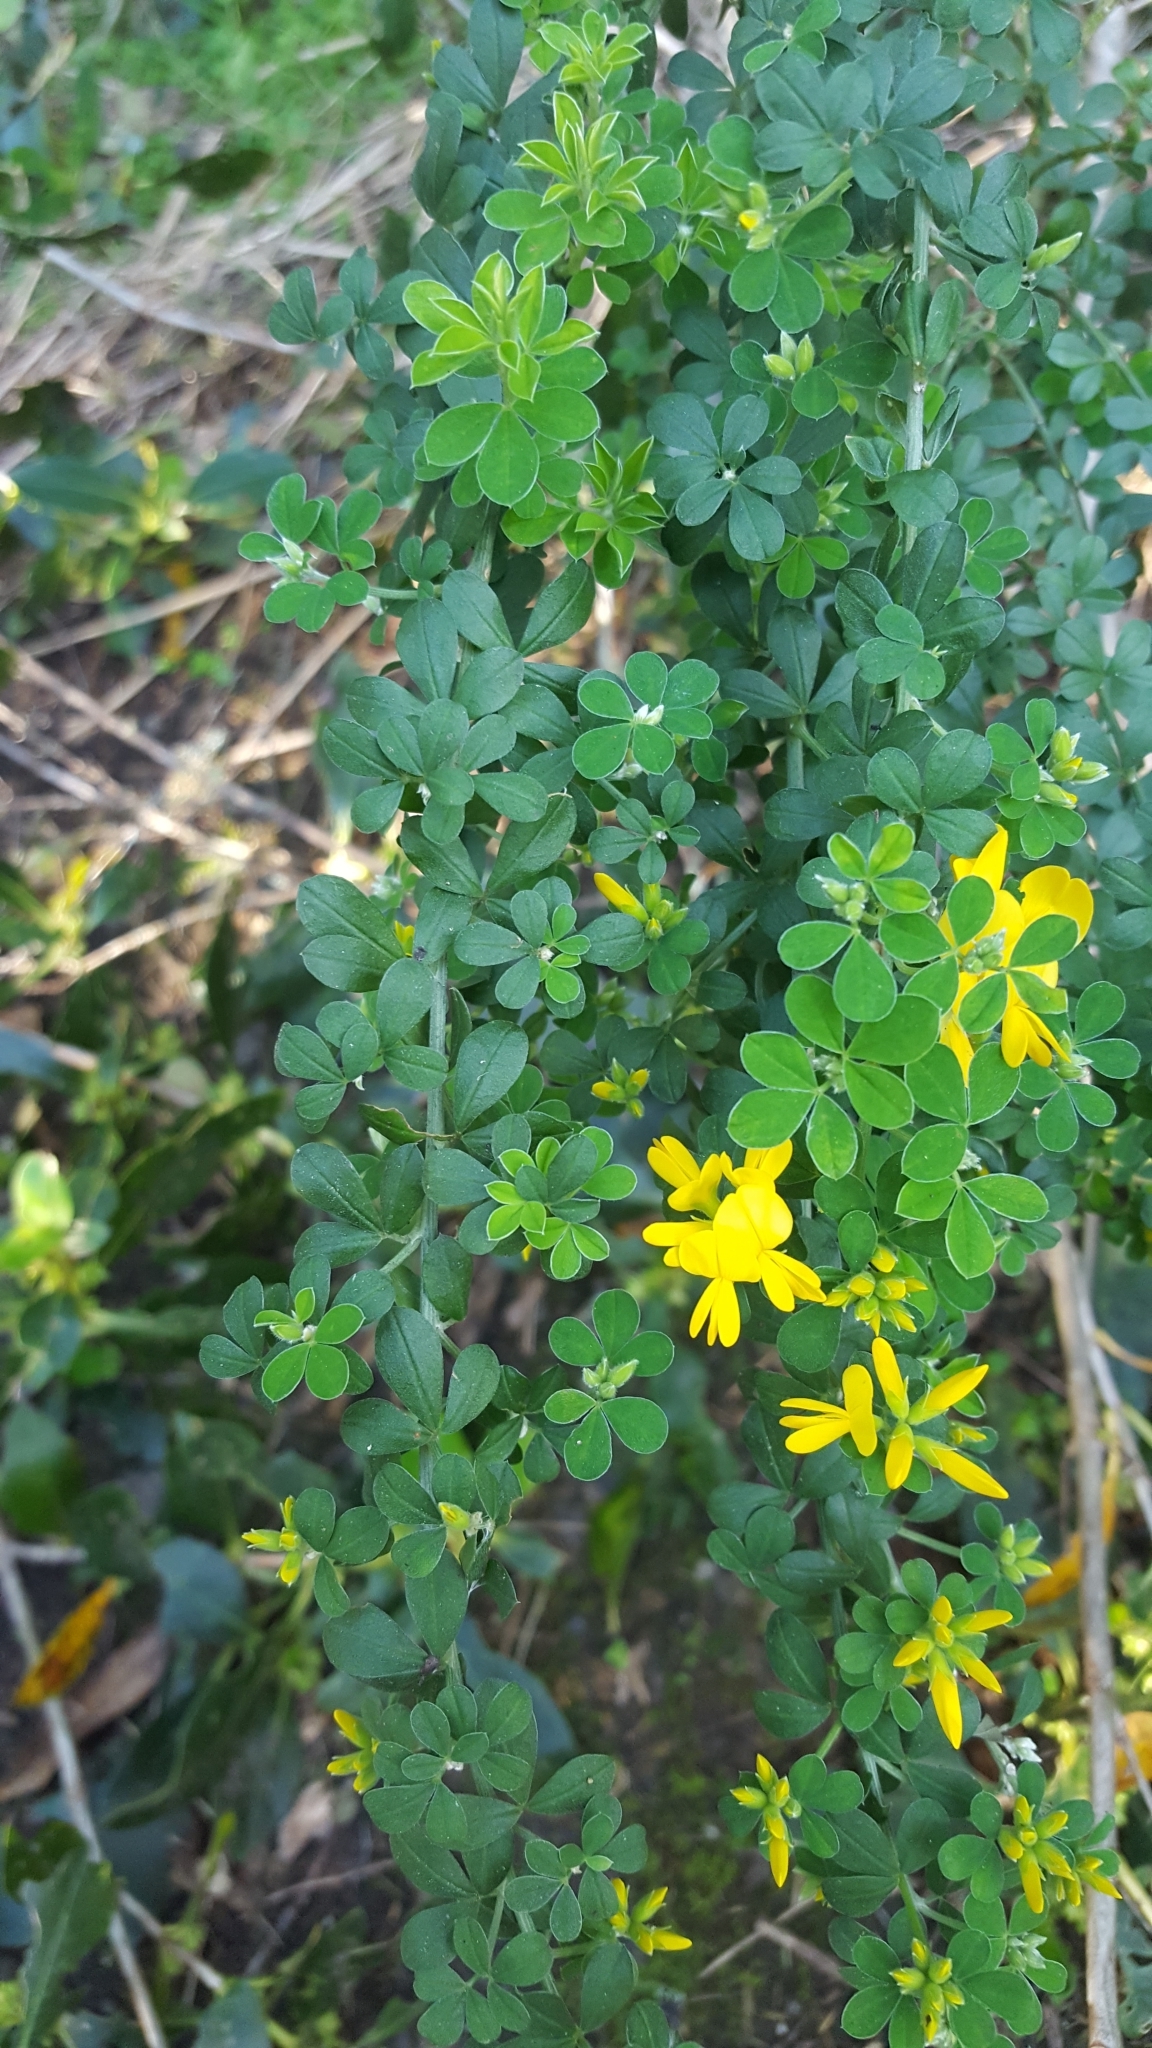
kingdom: Plantae
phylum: Tracheophyta
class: Magnoliopsida
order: Fabales
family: Fabaceae
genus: Genista
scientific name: Genista monspessulana
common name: Montpellier broom
